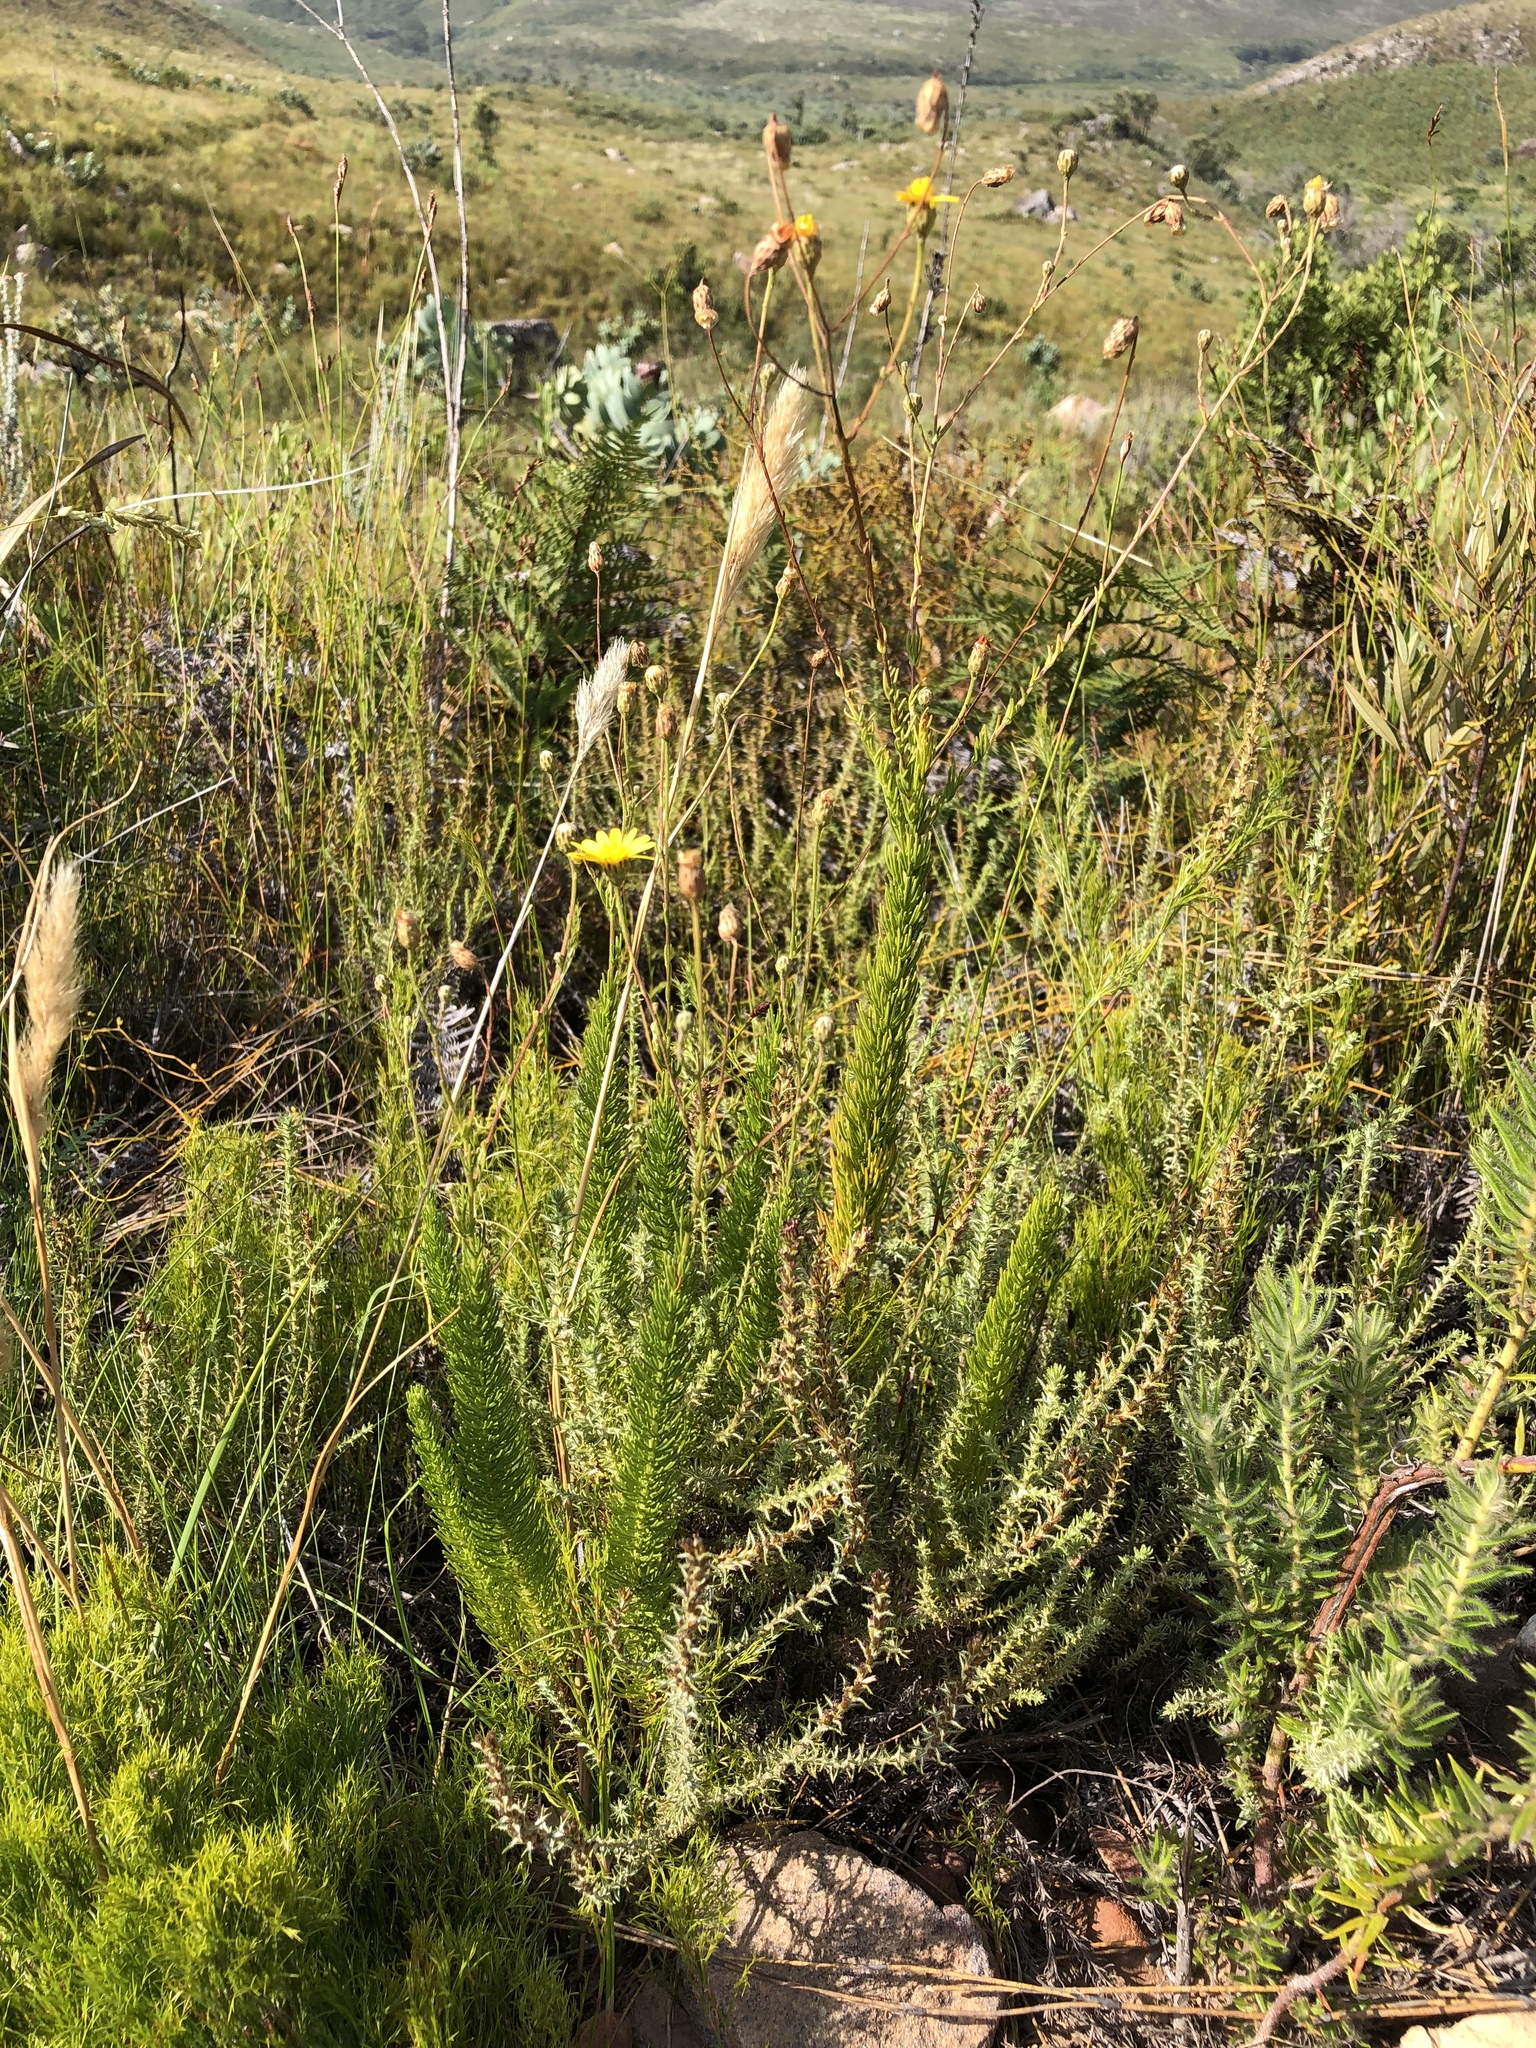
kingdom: Plantae
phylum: Tracheophyta
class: Magnoliopsida
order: Asterales
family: Asteraceae
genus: Ursinia
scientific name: Ursinia punctata
